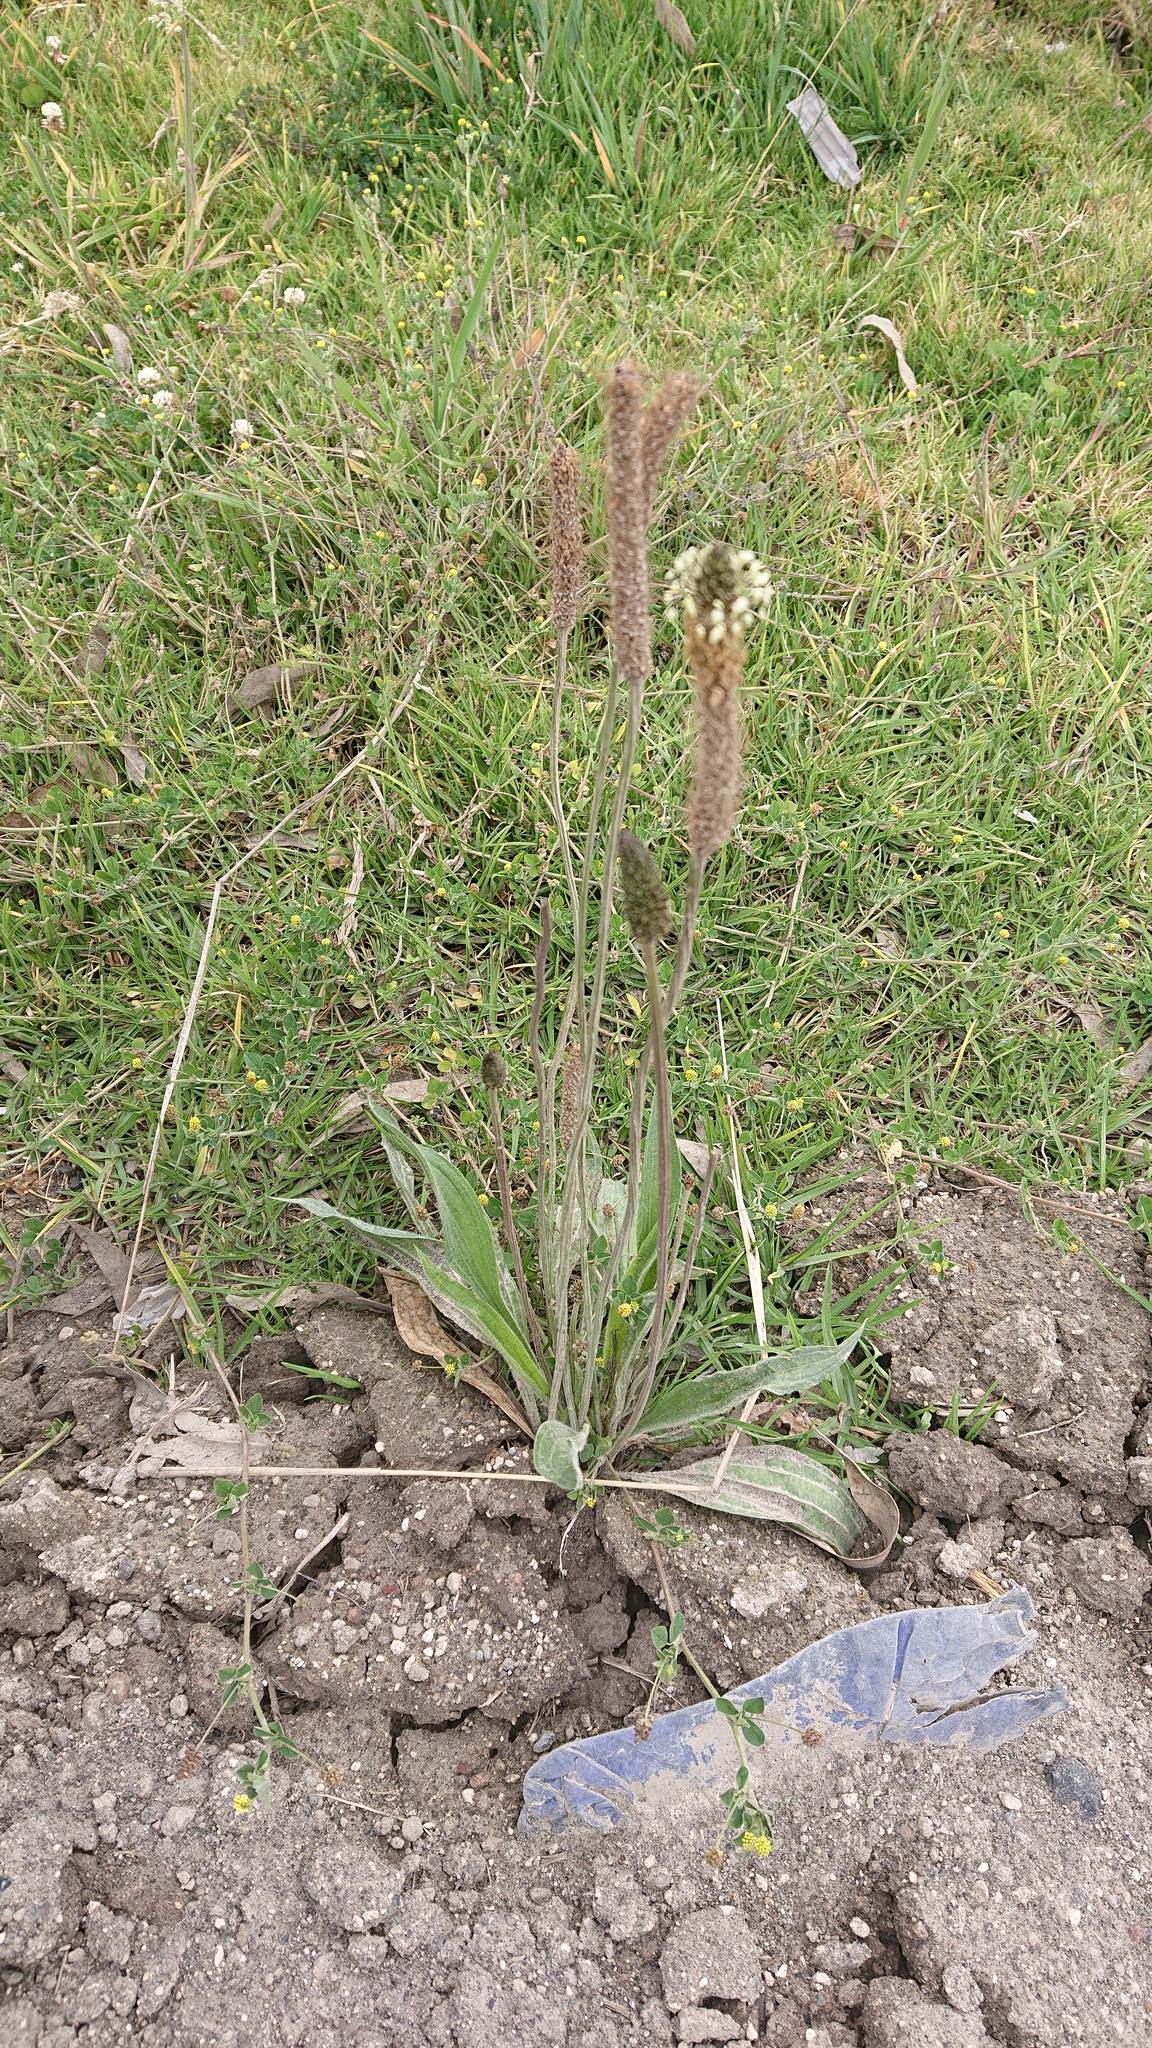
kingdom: Plantae
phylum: Tracheophyta
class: Magnoliopsida
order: Lamiales
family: Plantaginaceae
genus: Plantago
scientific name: Plantago lanceolata
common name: Ribwort plantain
